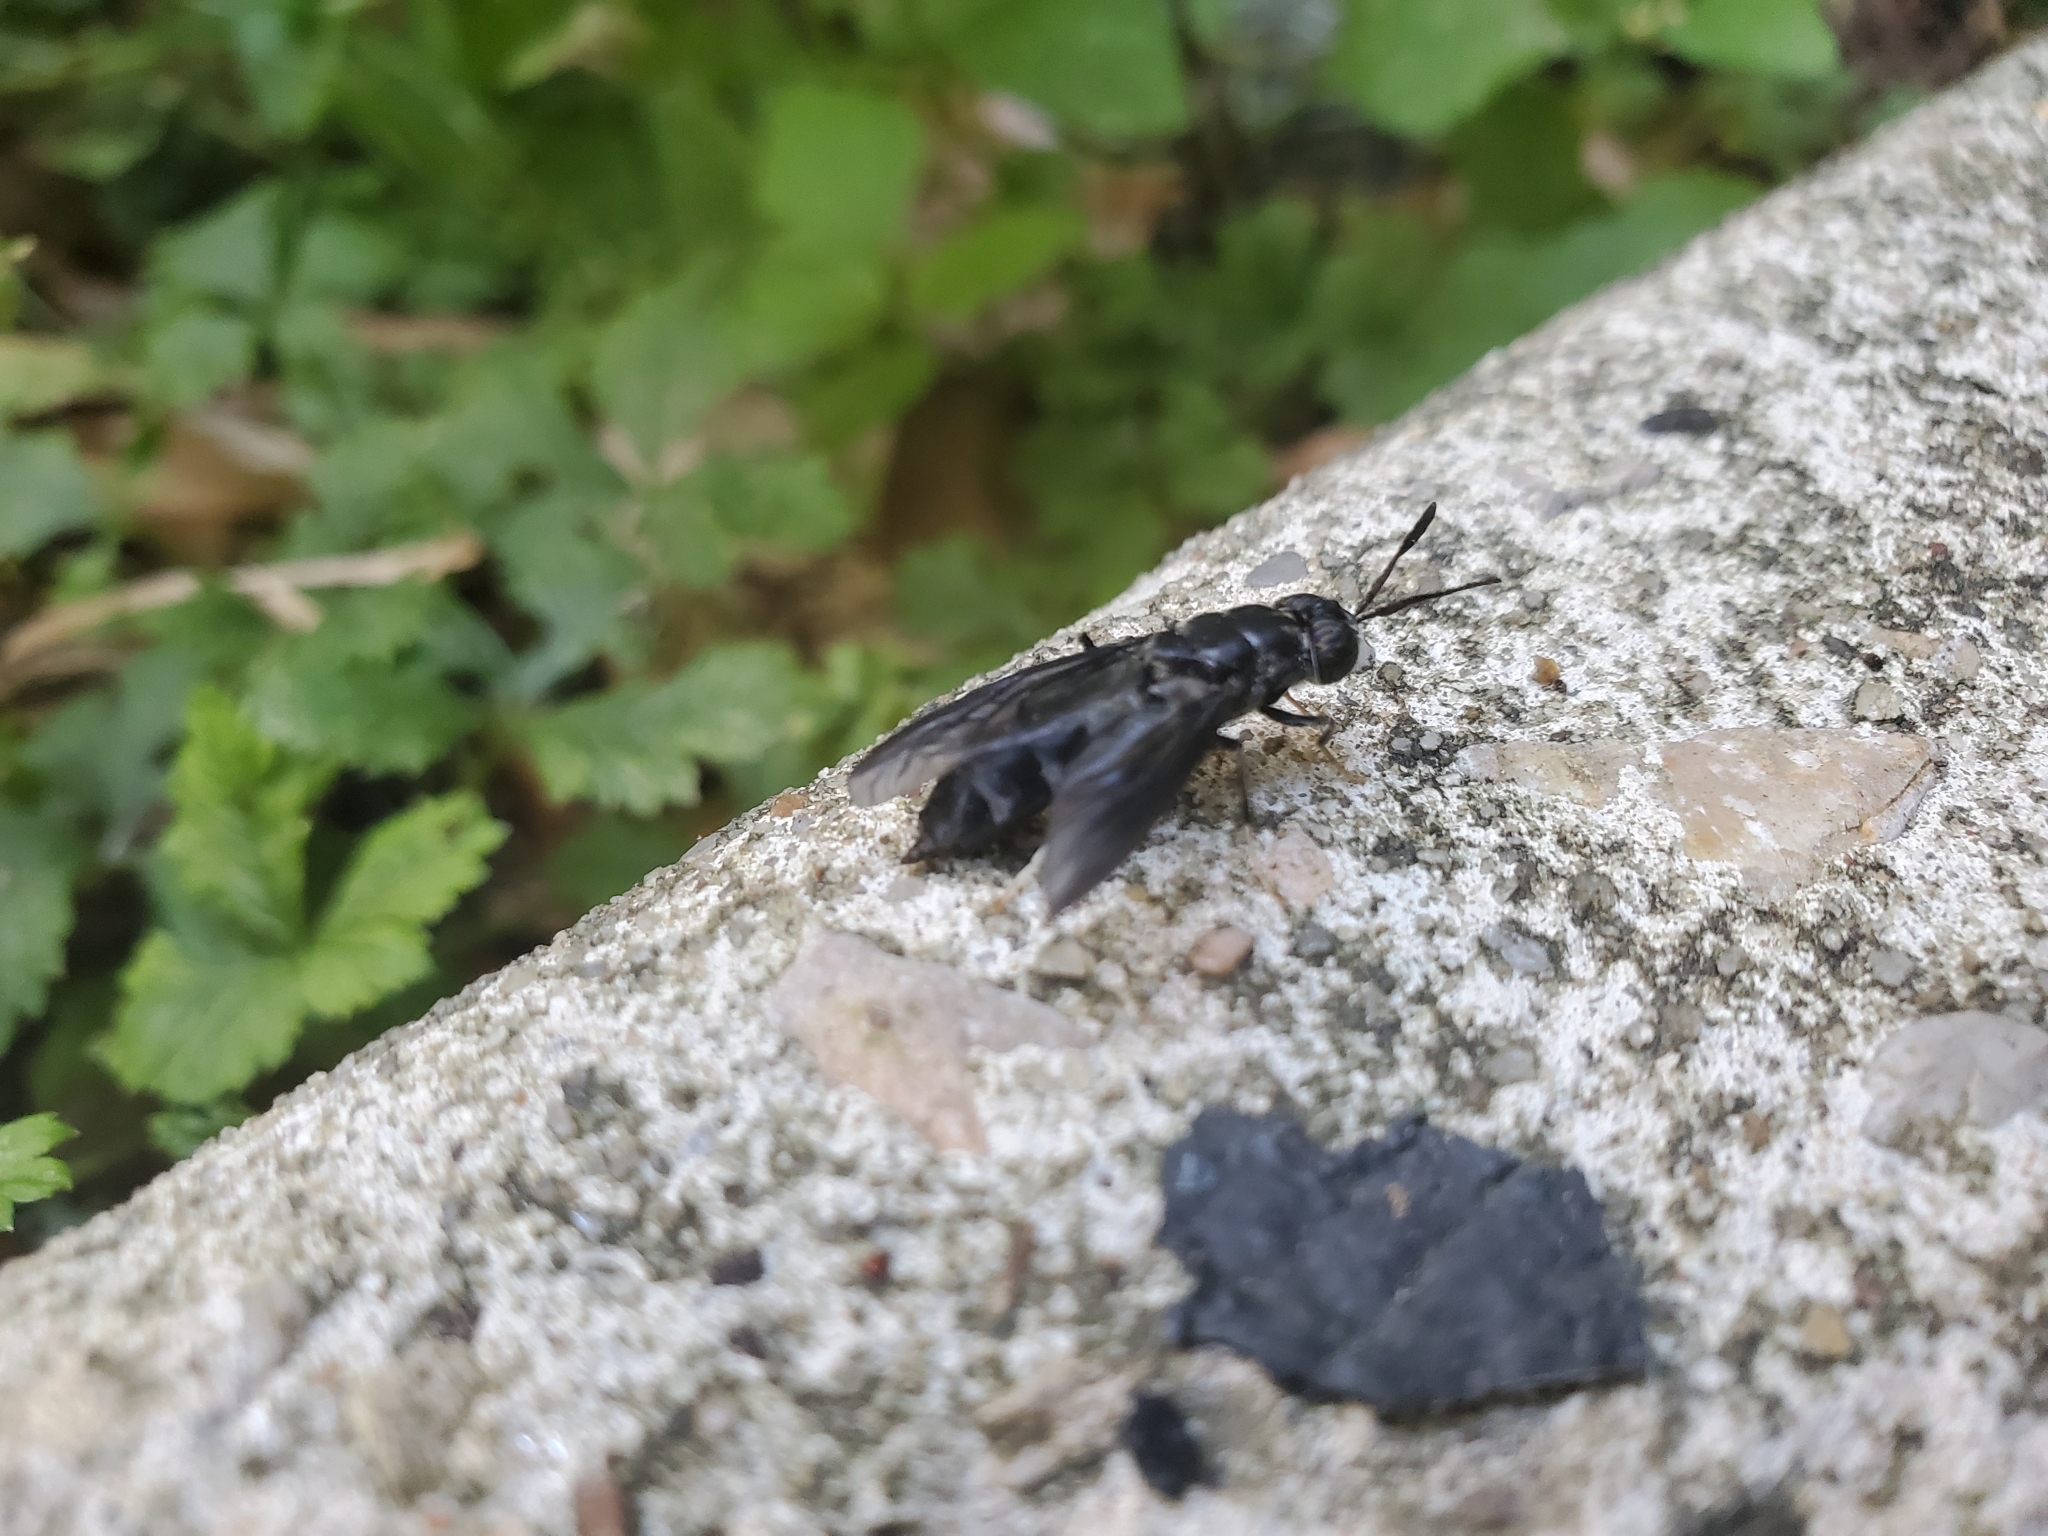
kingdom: Animalia
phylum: Arthropoda
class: Insecta
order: Diptera
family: Stratiomyidae
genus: Hermetia
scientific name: Hermetia illucens
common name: Black soldier fly
